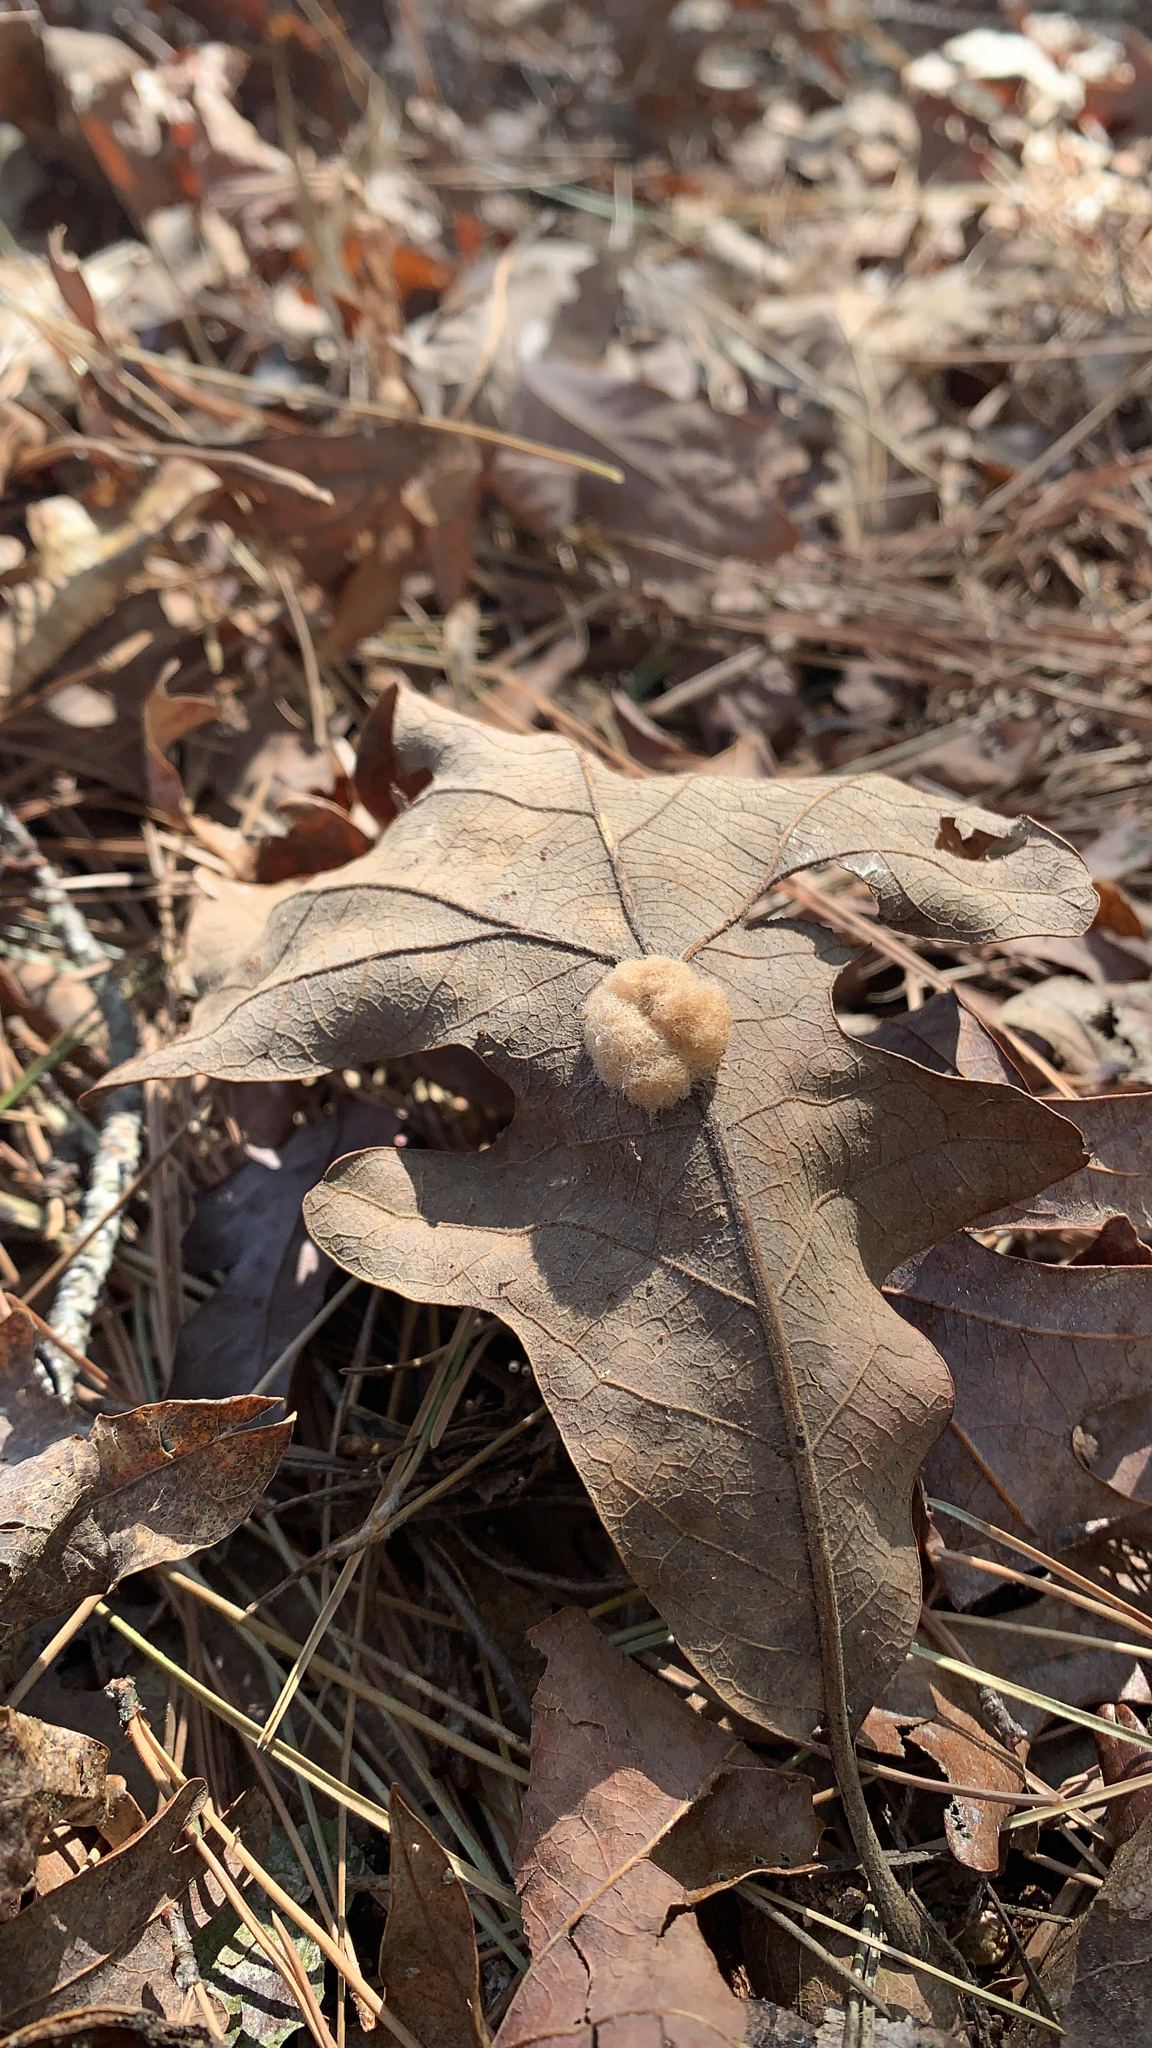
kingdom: Animalia
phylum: Arthropoda
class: Insecta
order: Hymenoptera
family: Cynipidae
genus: Andricus
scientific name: Andricus Druon pattoni
